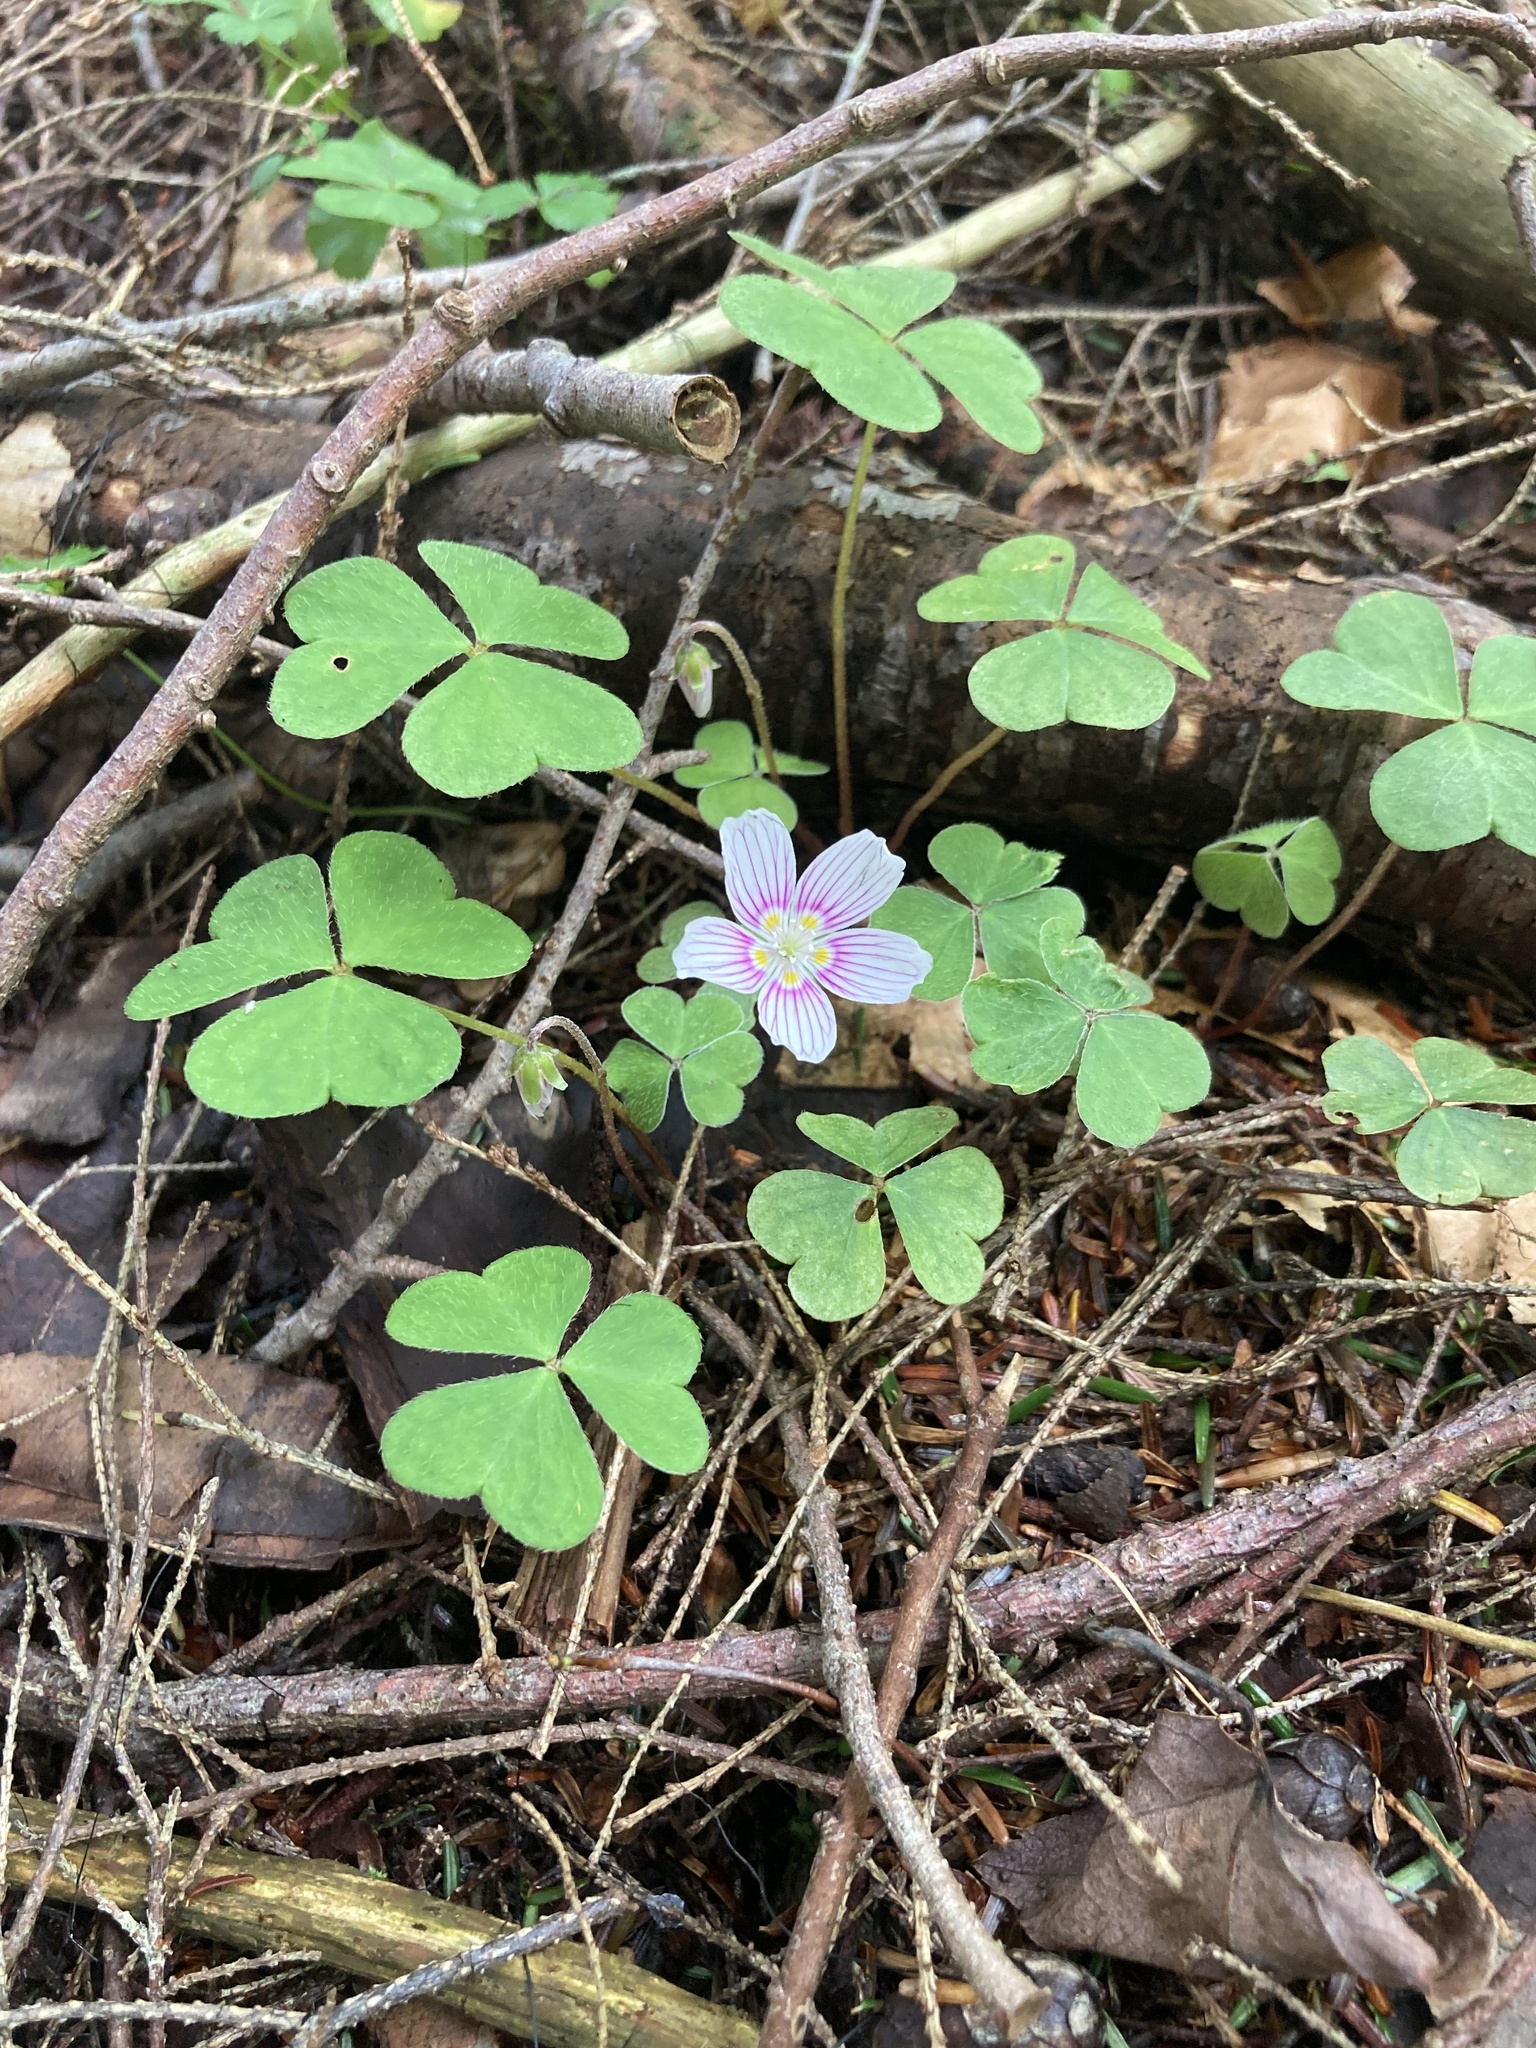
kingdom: Plantae
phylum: Tracheophyta
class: Magnoliopsida
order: Oxalidales
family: Oxalidaceae
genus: Oxalis
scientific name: Oxalis montana
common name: American wood-sorrel
